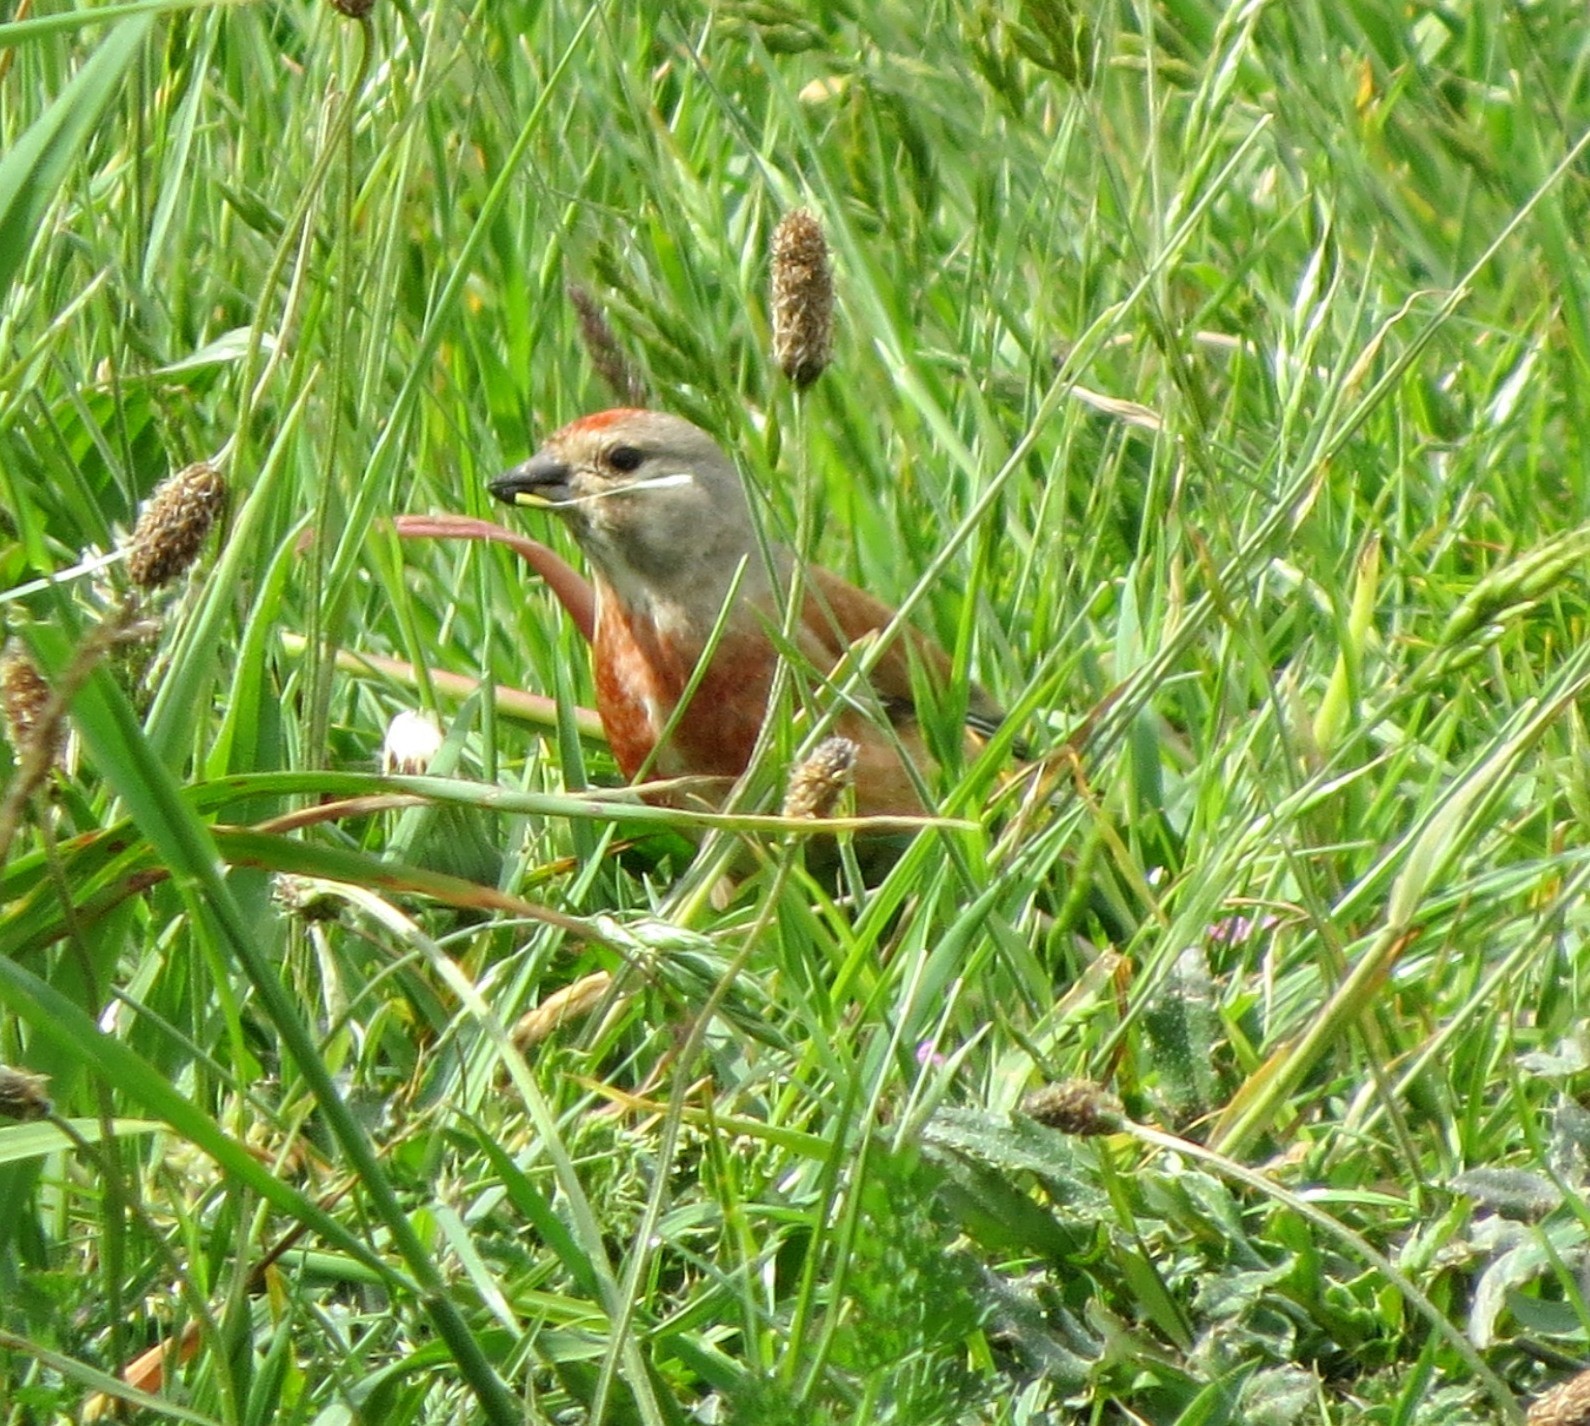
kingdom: Animalia
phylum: Chordata
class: Aves
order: Passeriformes
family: Fringillidae
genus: Linaria
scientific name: Linaria cannabina
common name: Common linnet
